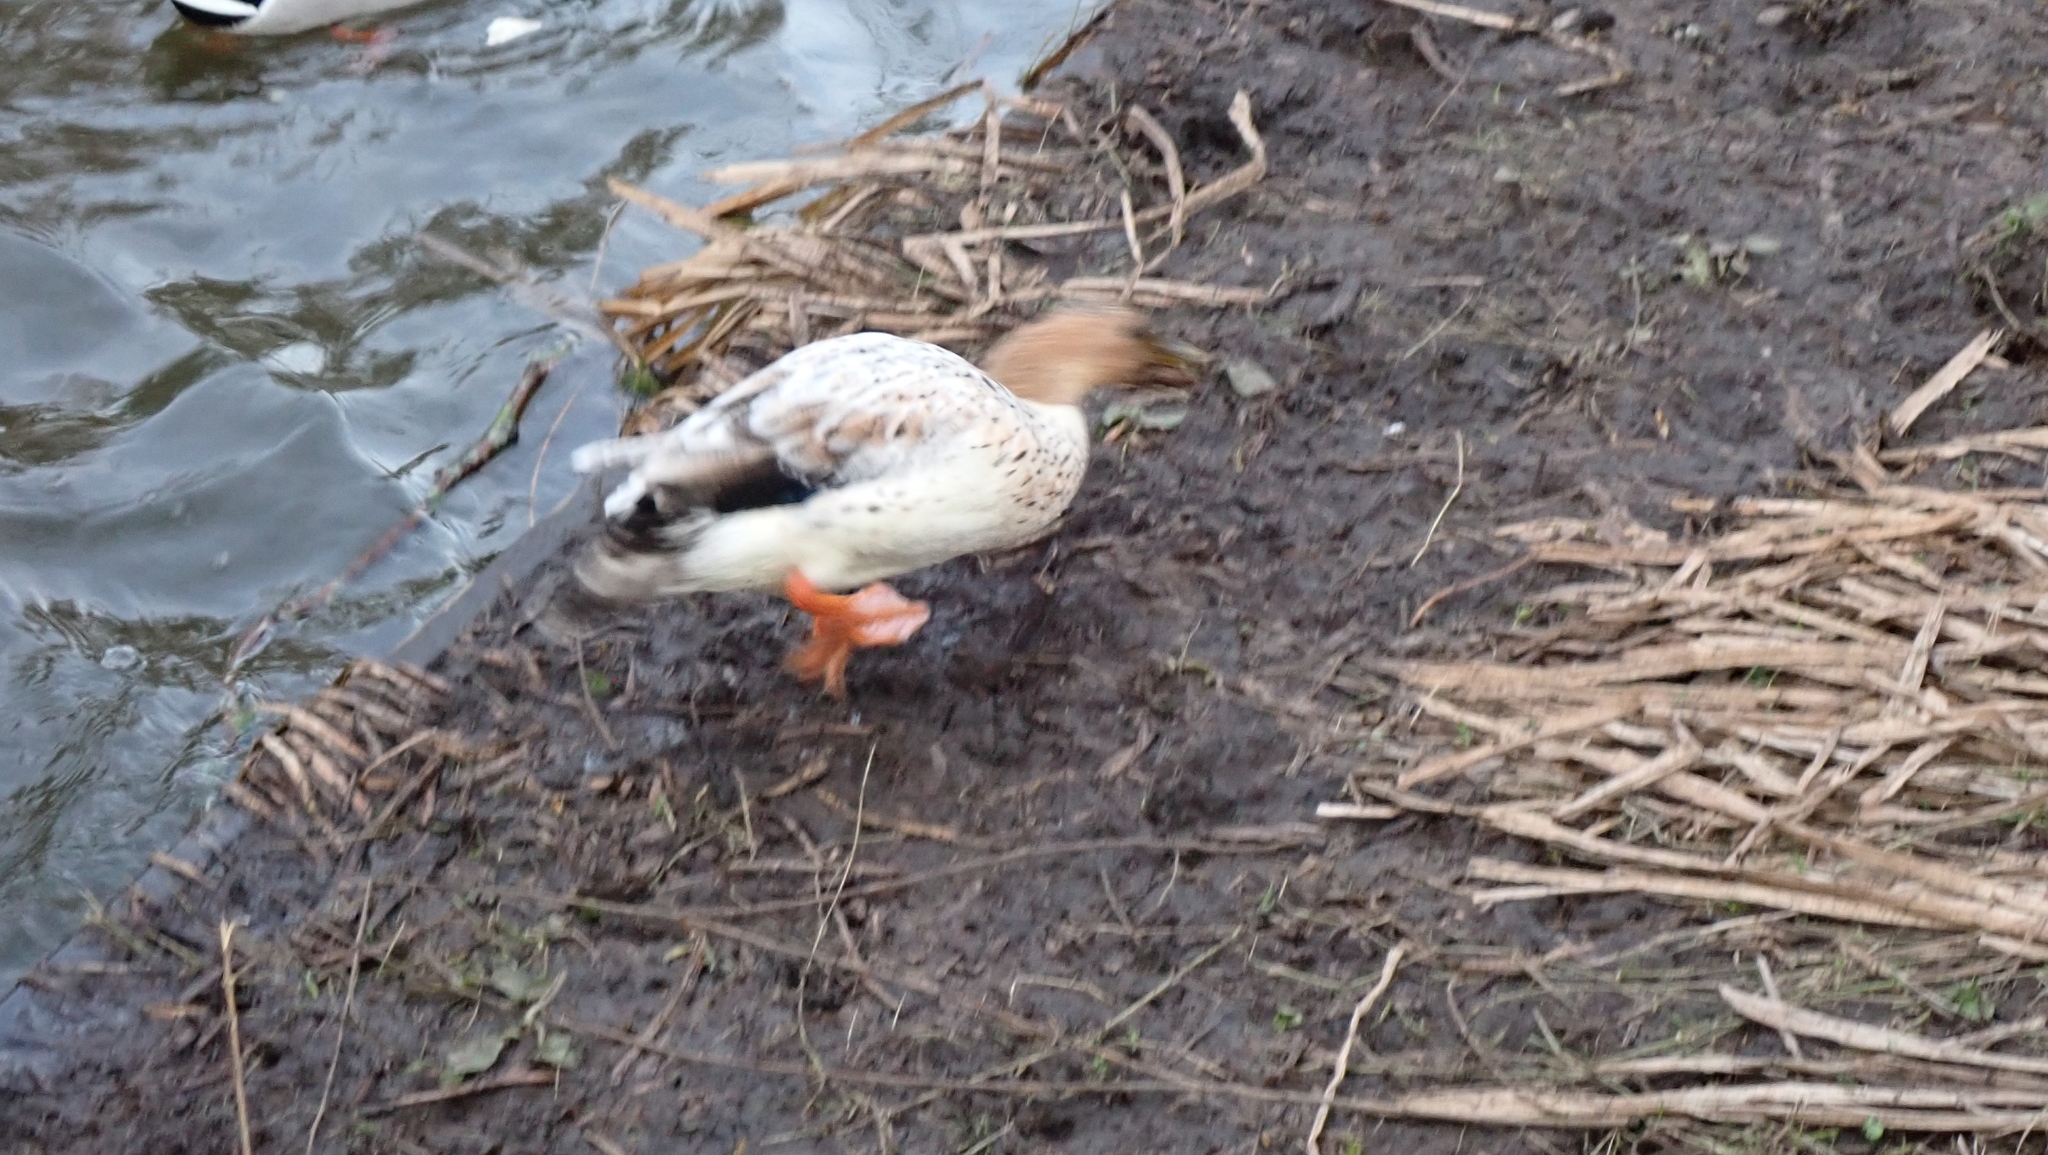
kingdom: Animalia
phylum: Chordata
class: Aves
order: Anseriformes
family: Anatidae
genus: Anas
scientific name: Anas platyrhynchos
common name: Mallard
